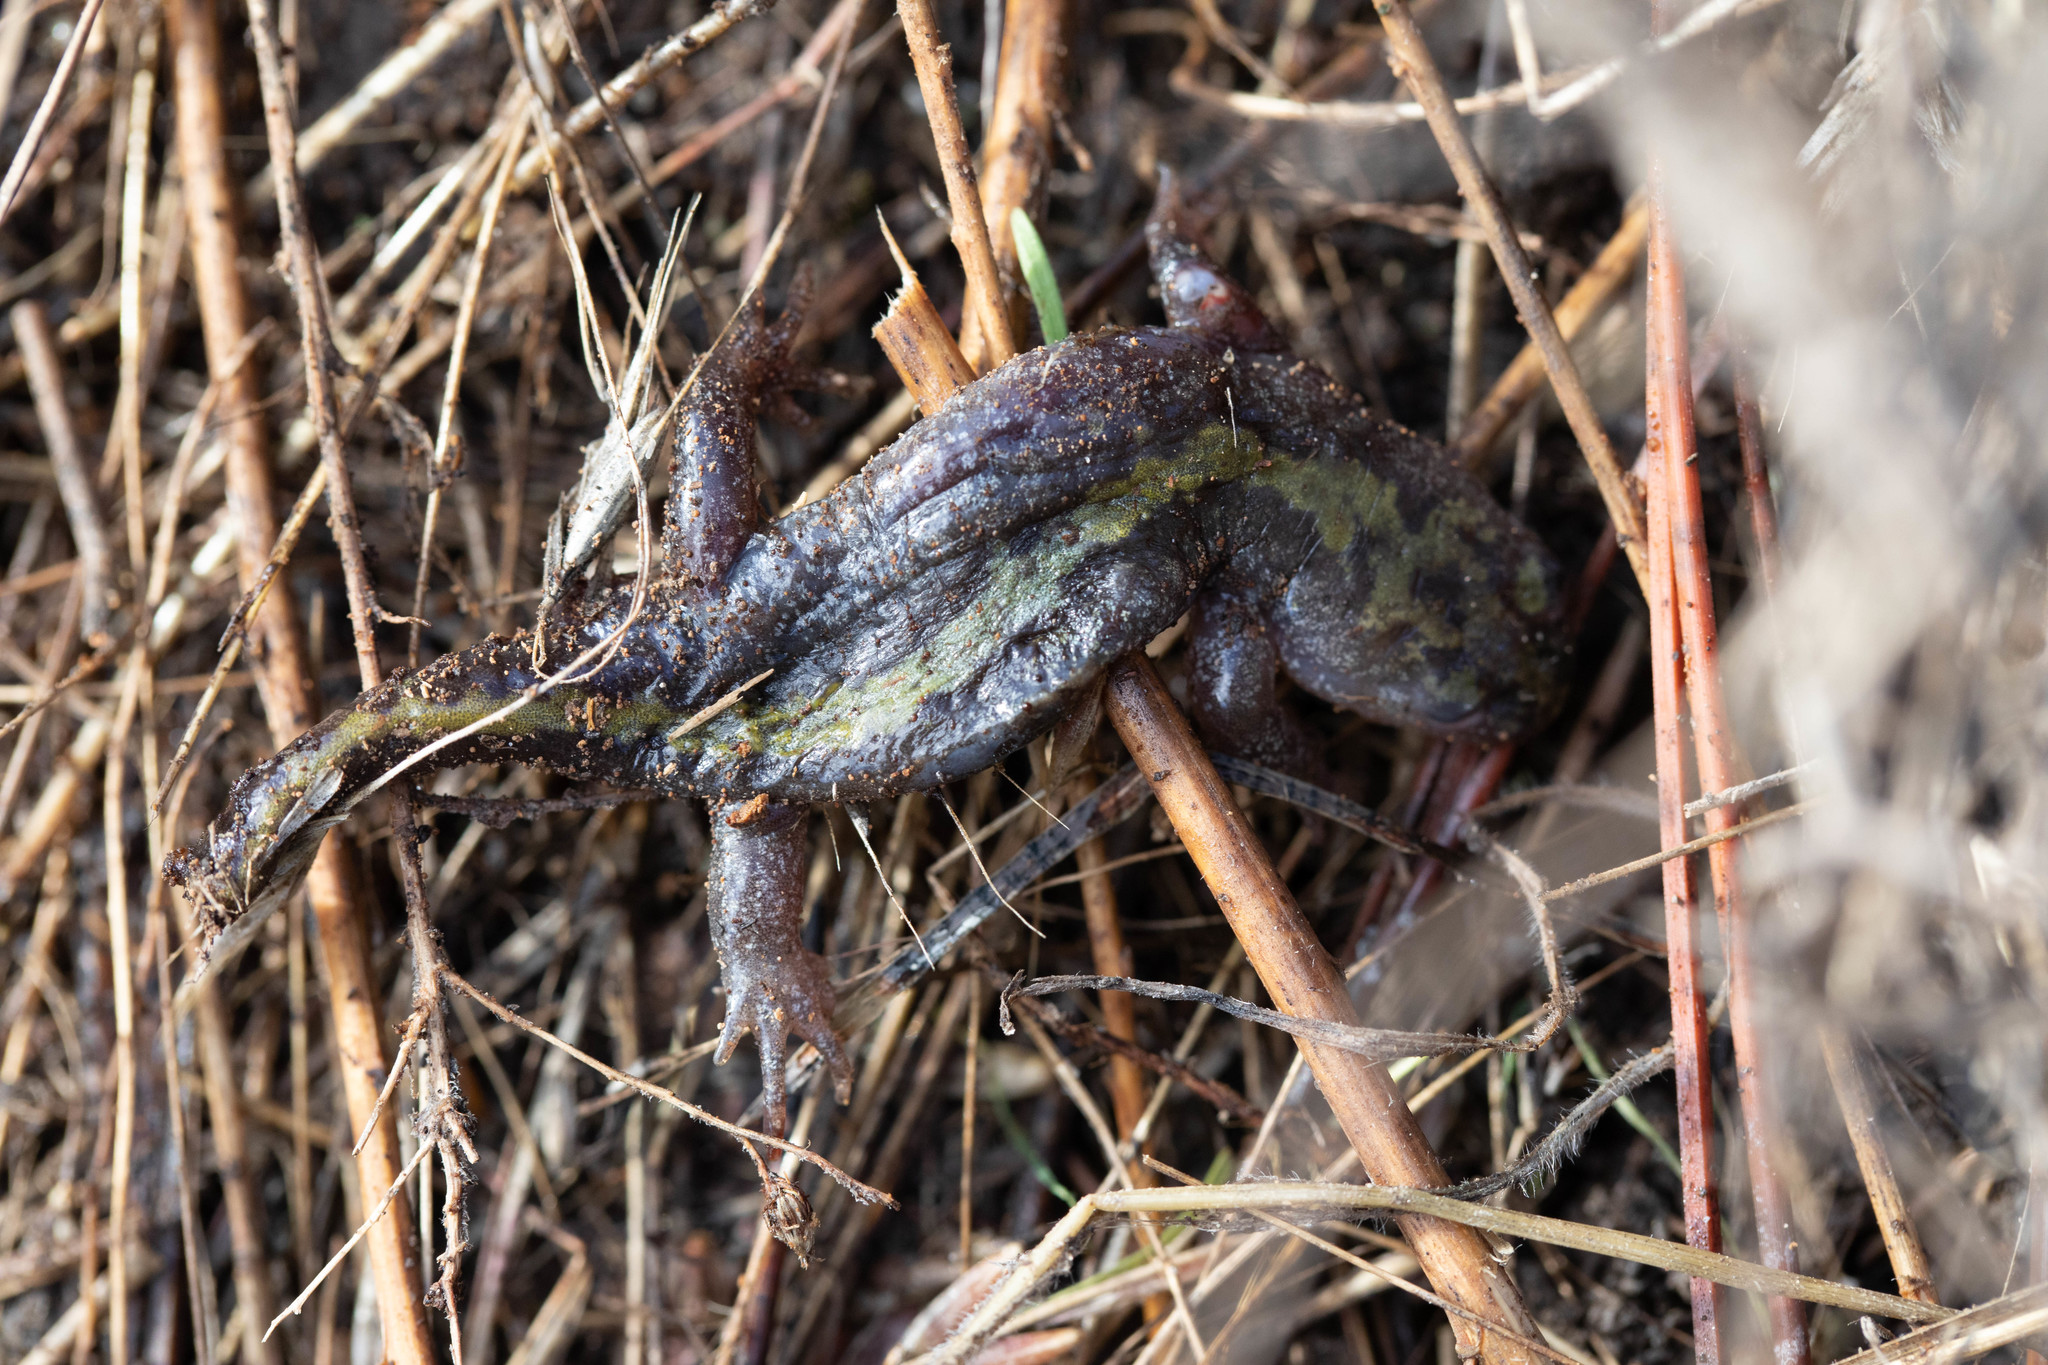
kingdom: Animalia
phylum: Chordata
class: Amphibia
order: Caudata
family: Ambystomatidae
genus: Ambystoma
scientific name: Ambystoma macrodactylum
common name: Long-toed salamander
